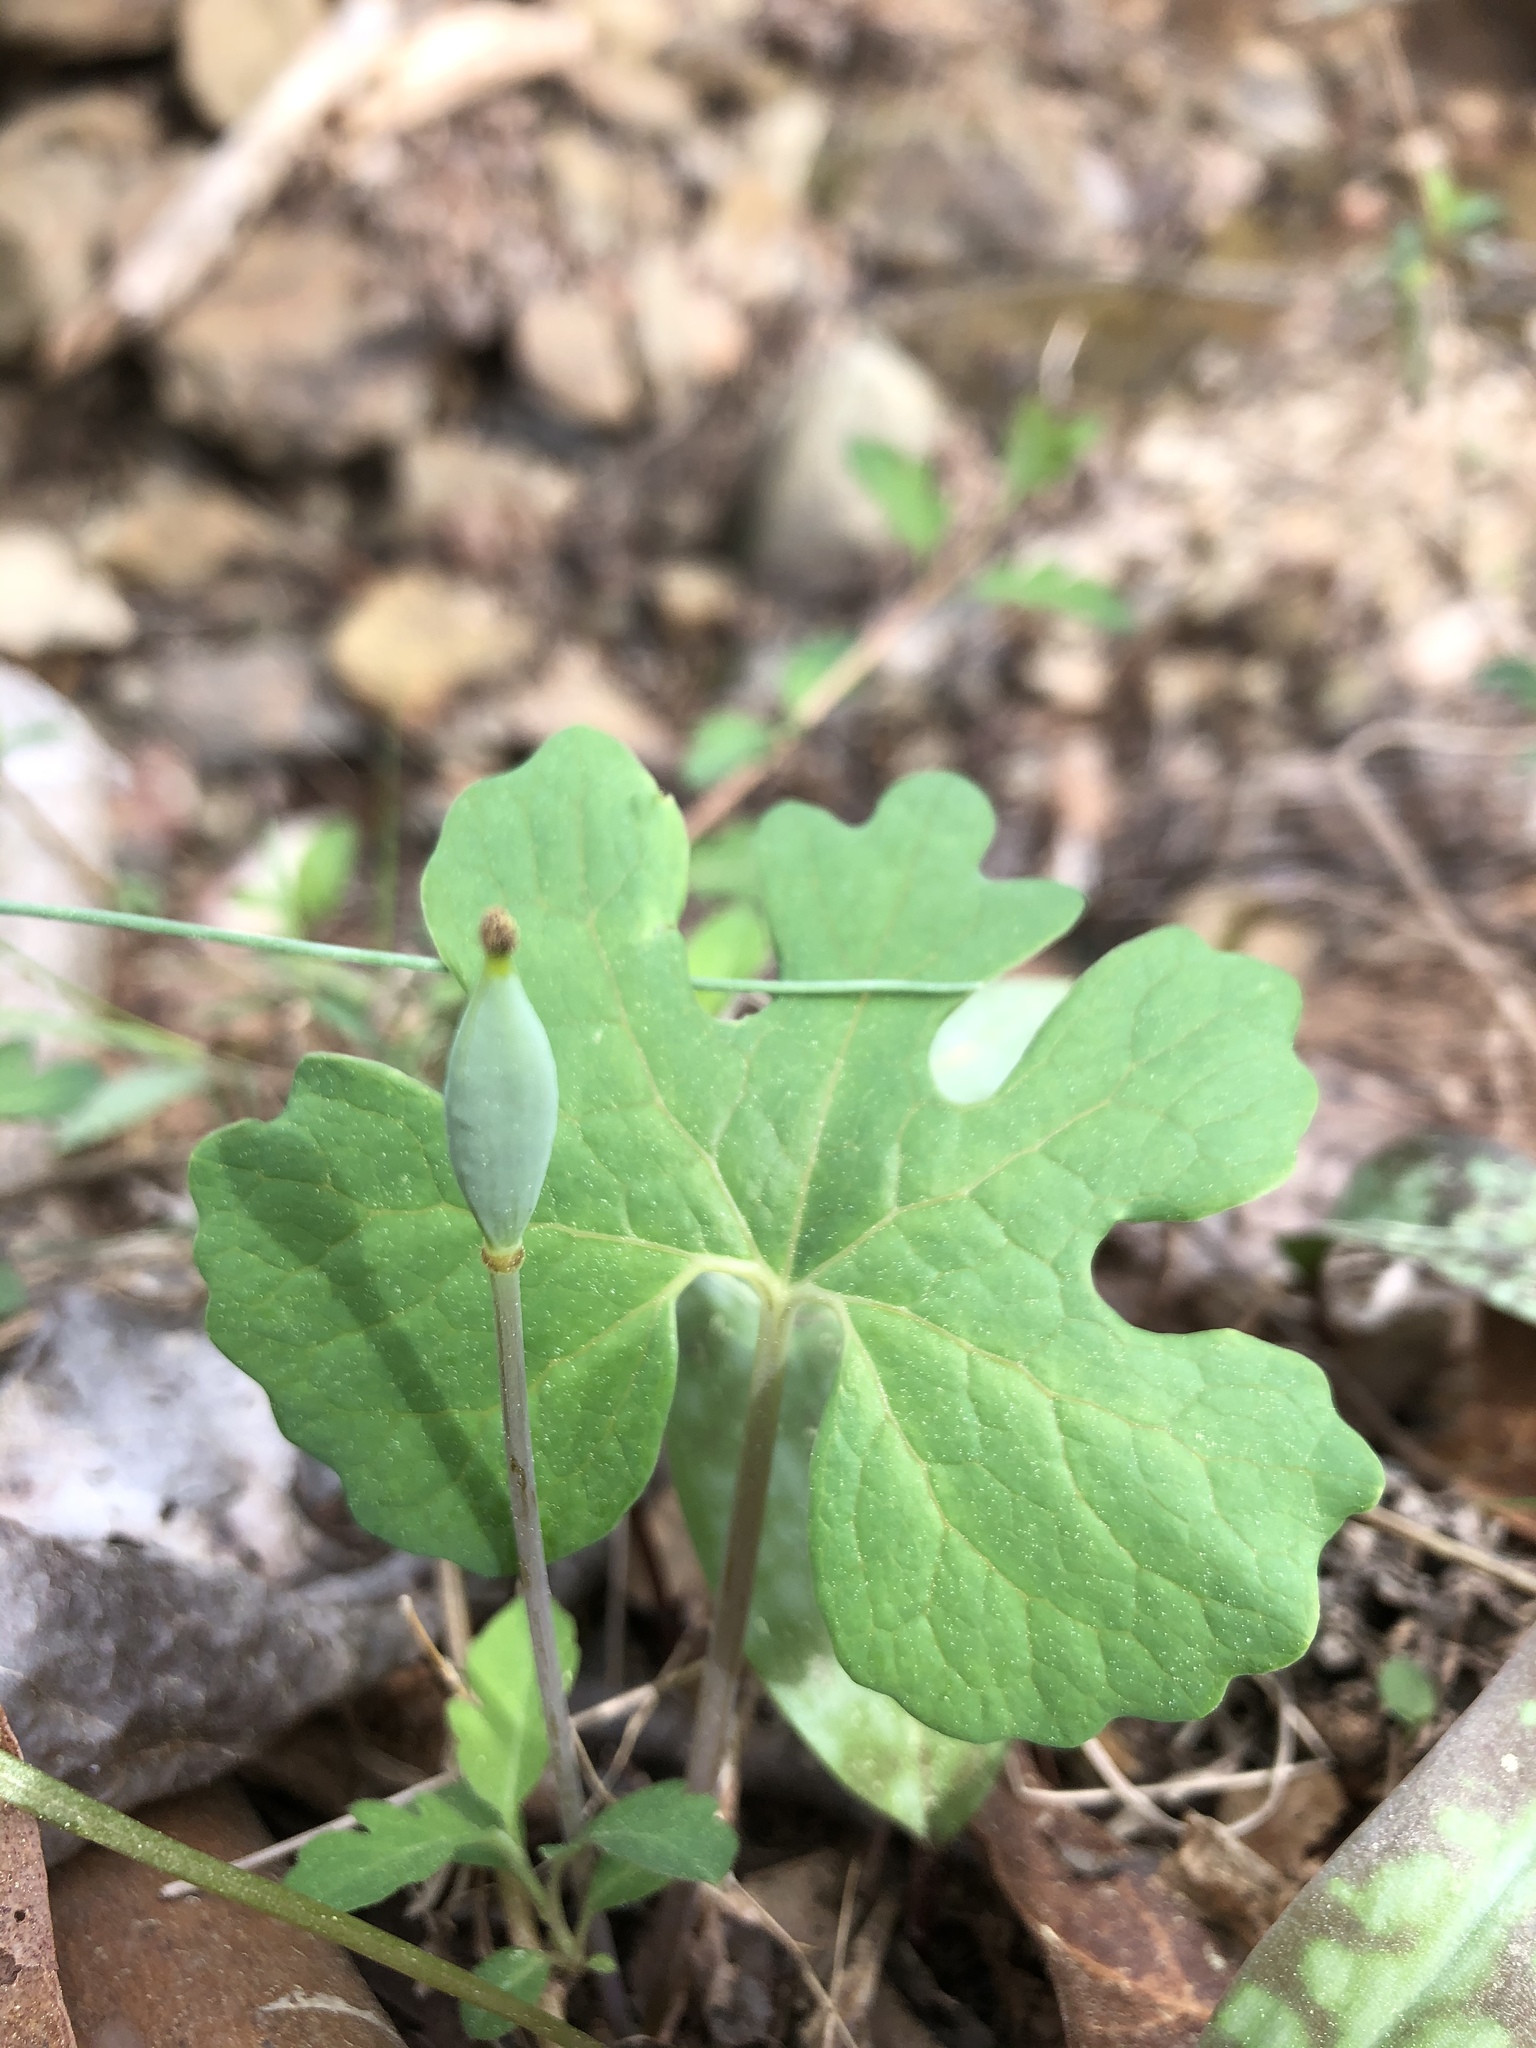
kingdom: Plantae
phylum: Tracheophyta
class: Magnoliopsida
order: Ranunculales
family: Papaveraceae
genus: Sanguinaria
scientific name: Sanguinaria canadensis
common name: Bloodroot
